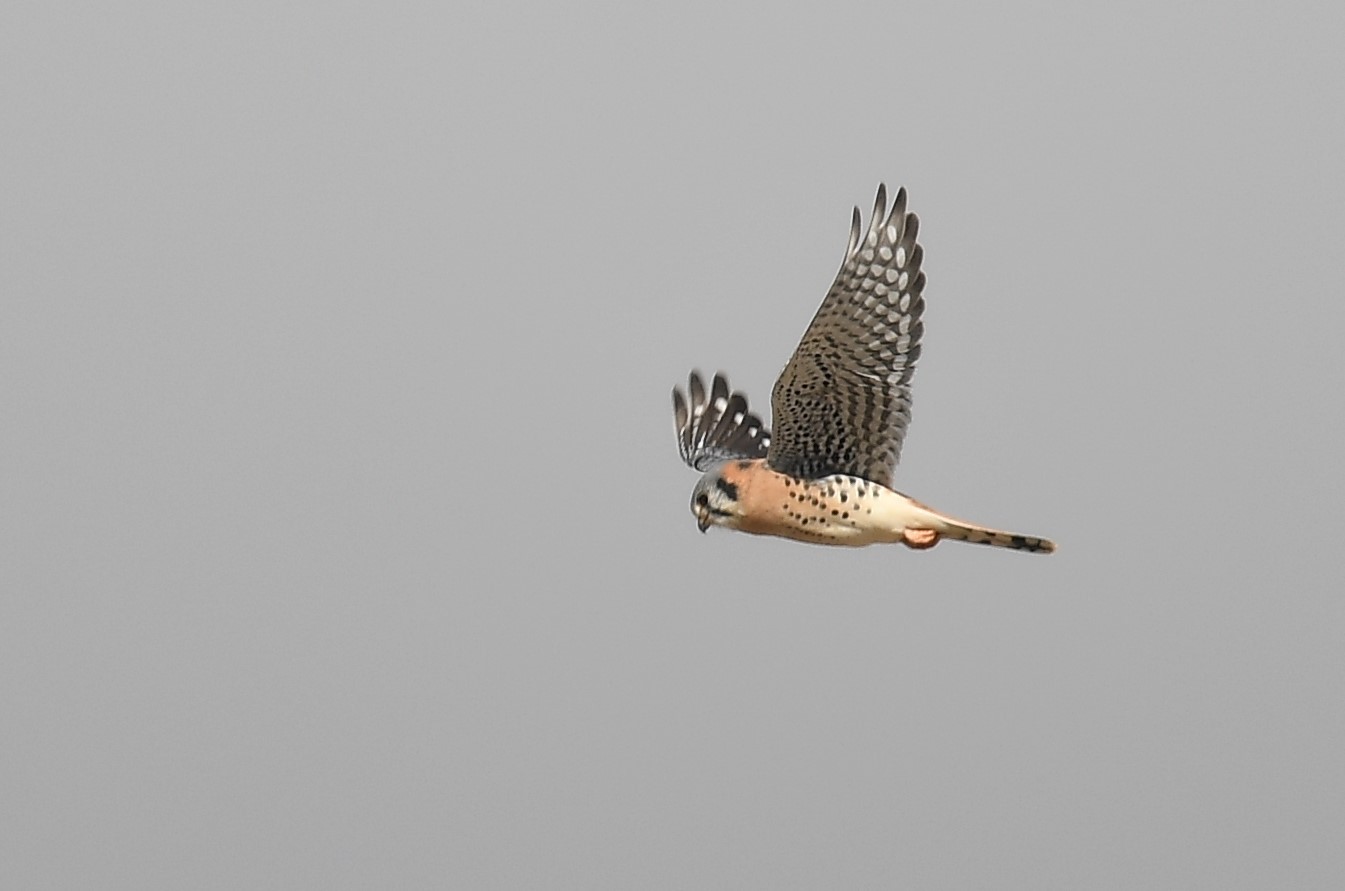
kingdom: Animalia
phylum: Chordata
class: Aves
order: Falconiformes
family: Falconidae
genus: Falco
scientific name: Falco sparverius
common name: American kestrel
